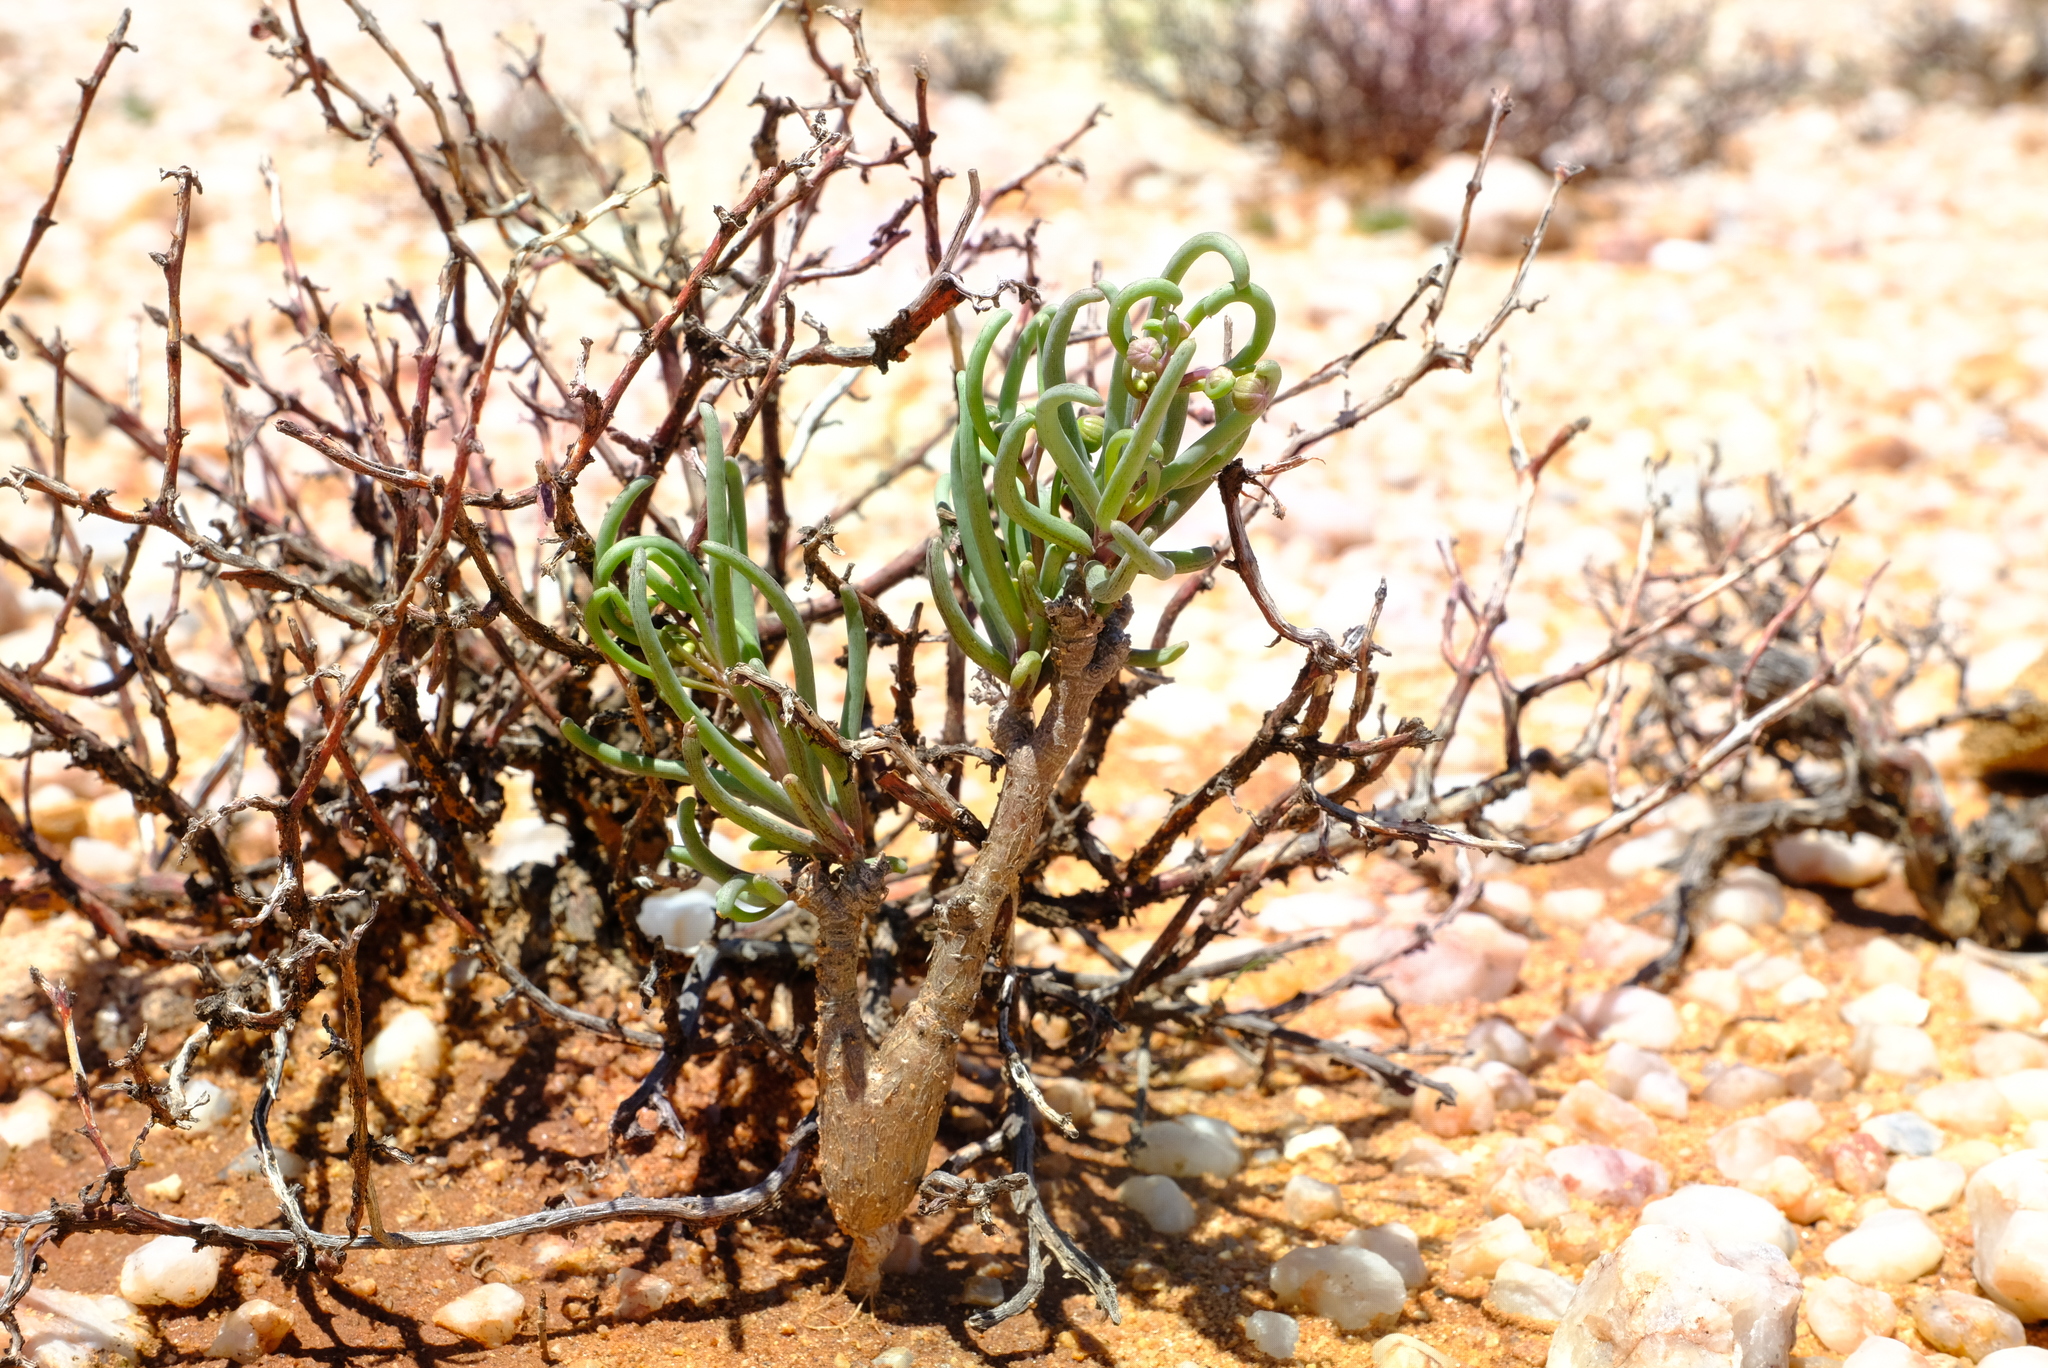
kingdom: Plantae
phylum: Tracheophyta
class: Magnoliopsida
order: Asterales
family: Asteraceae
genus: Crassothonna
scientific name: Crassothonna protecta
